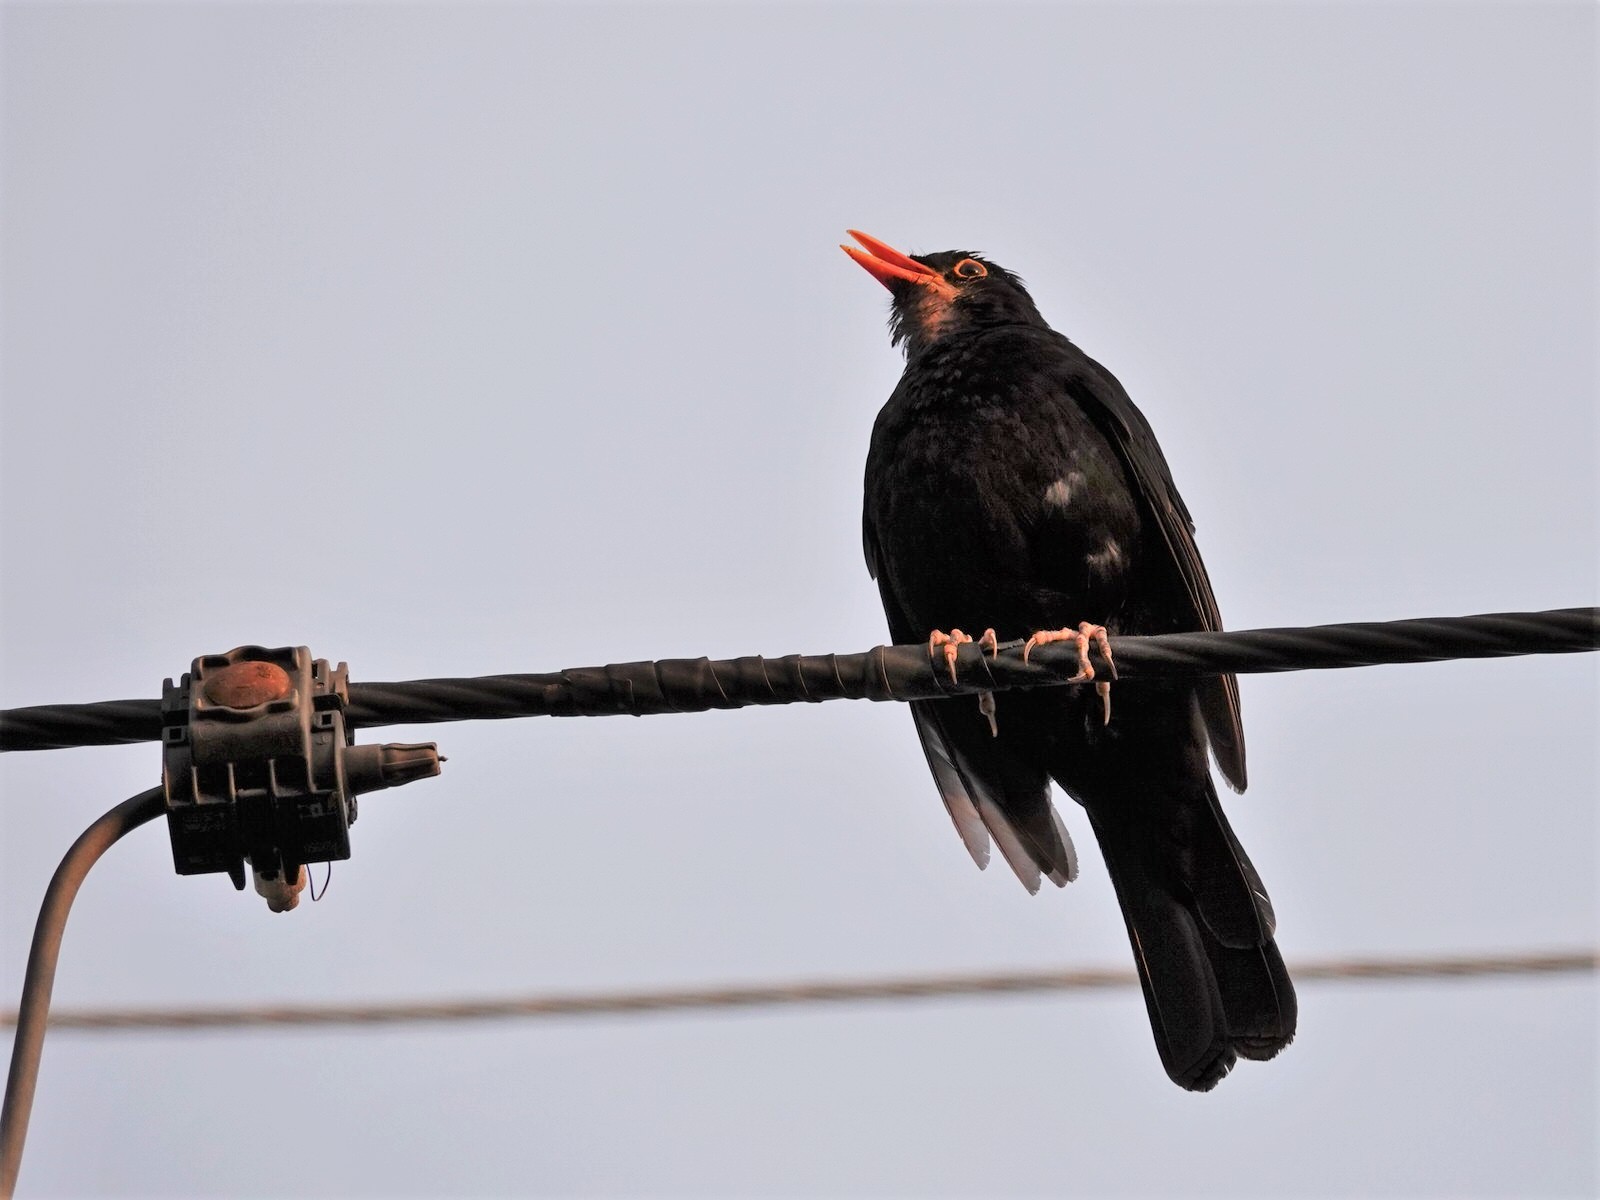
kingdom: Animalia
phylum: Chordata
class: Aves
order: Passeriformes
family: Turdidae
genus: Turdus
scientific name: Turdus merula
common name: Common blackbird
